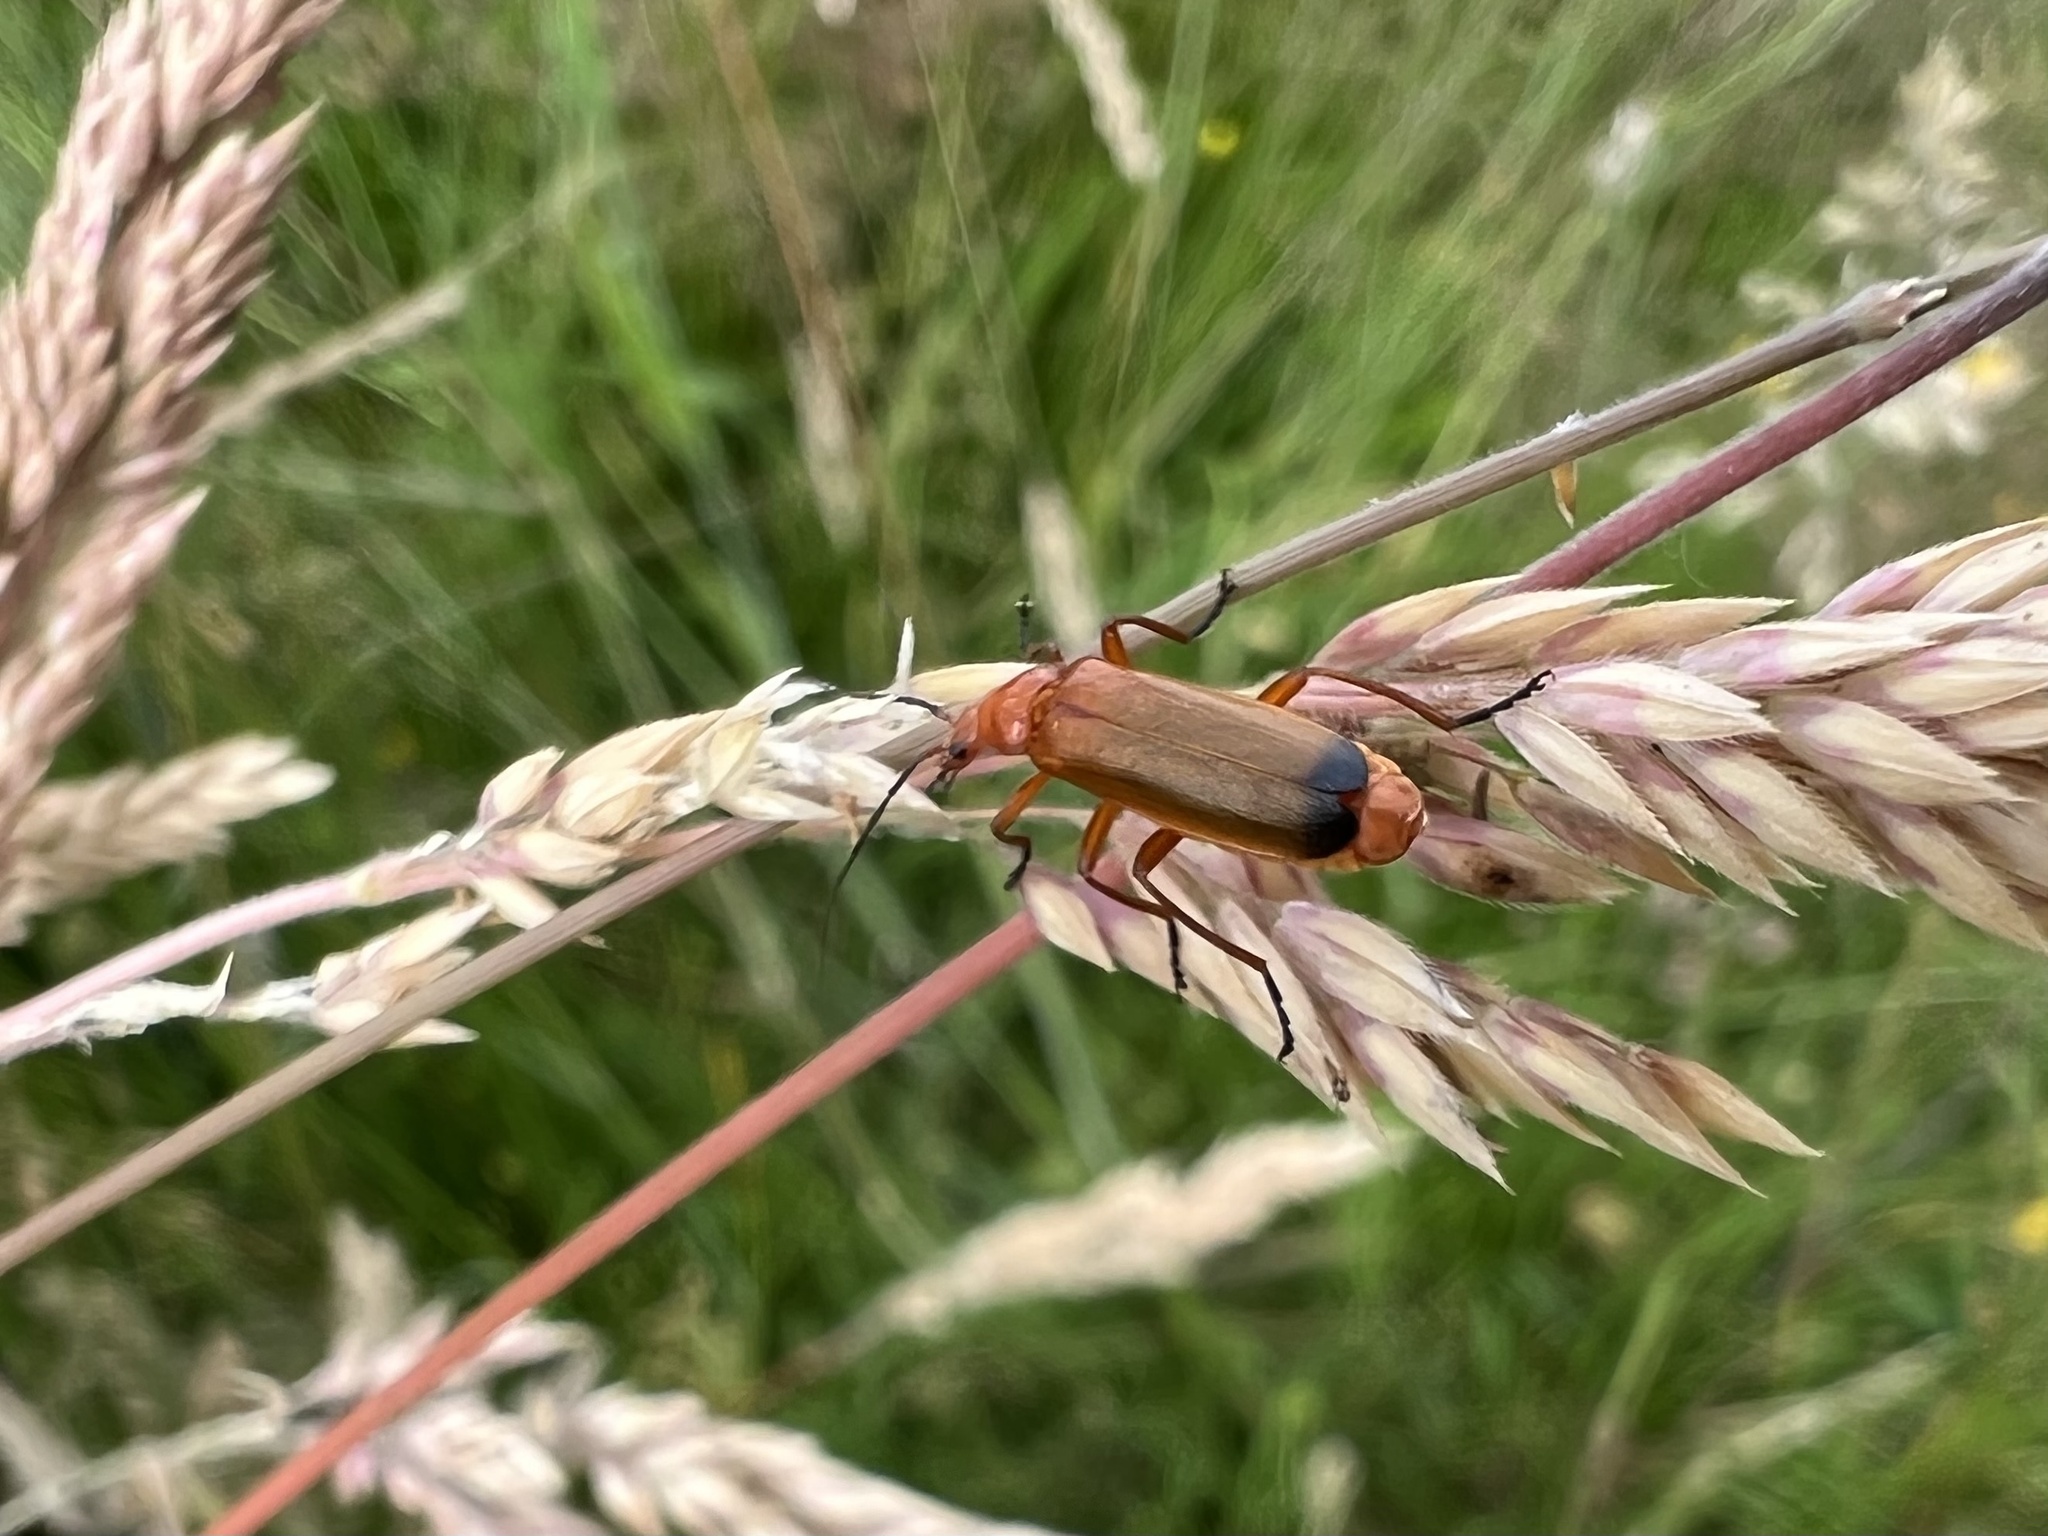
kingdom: Animalia
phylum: Arthropoda
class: Insecta
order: Coleoptera
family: Cantharidae
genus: Rhagonycha
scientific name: Rhagonycha fulva
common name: Common red soldier beetle
